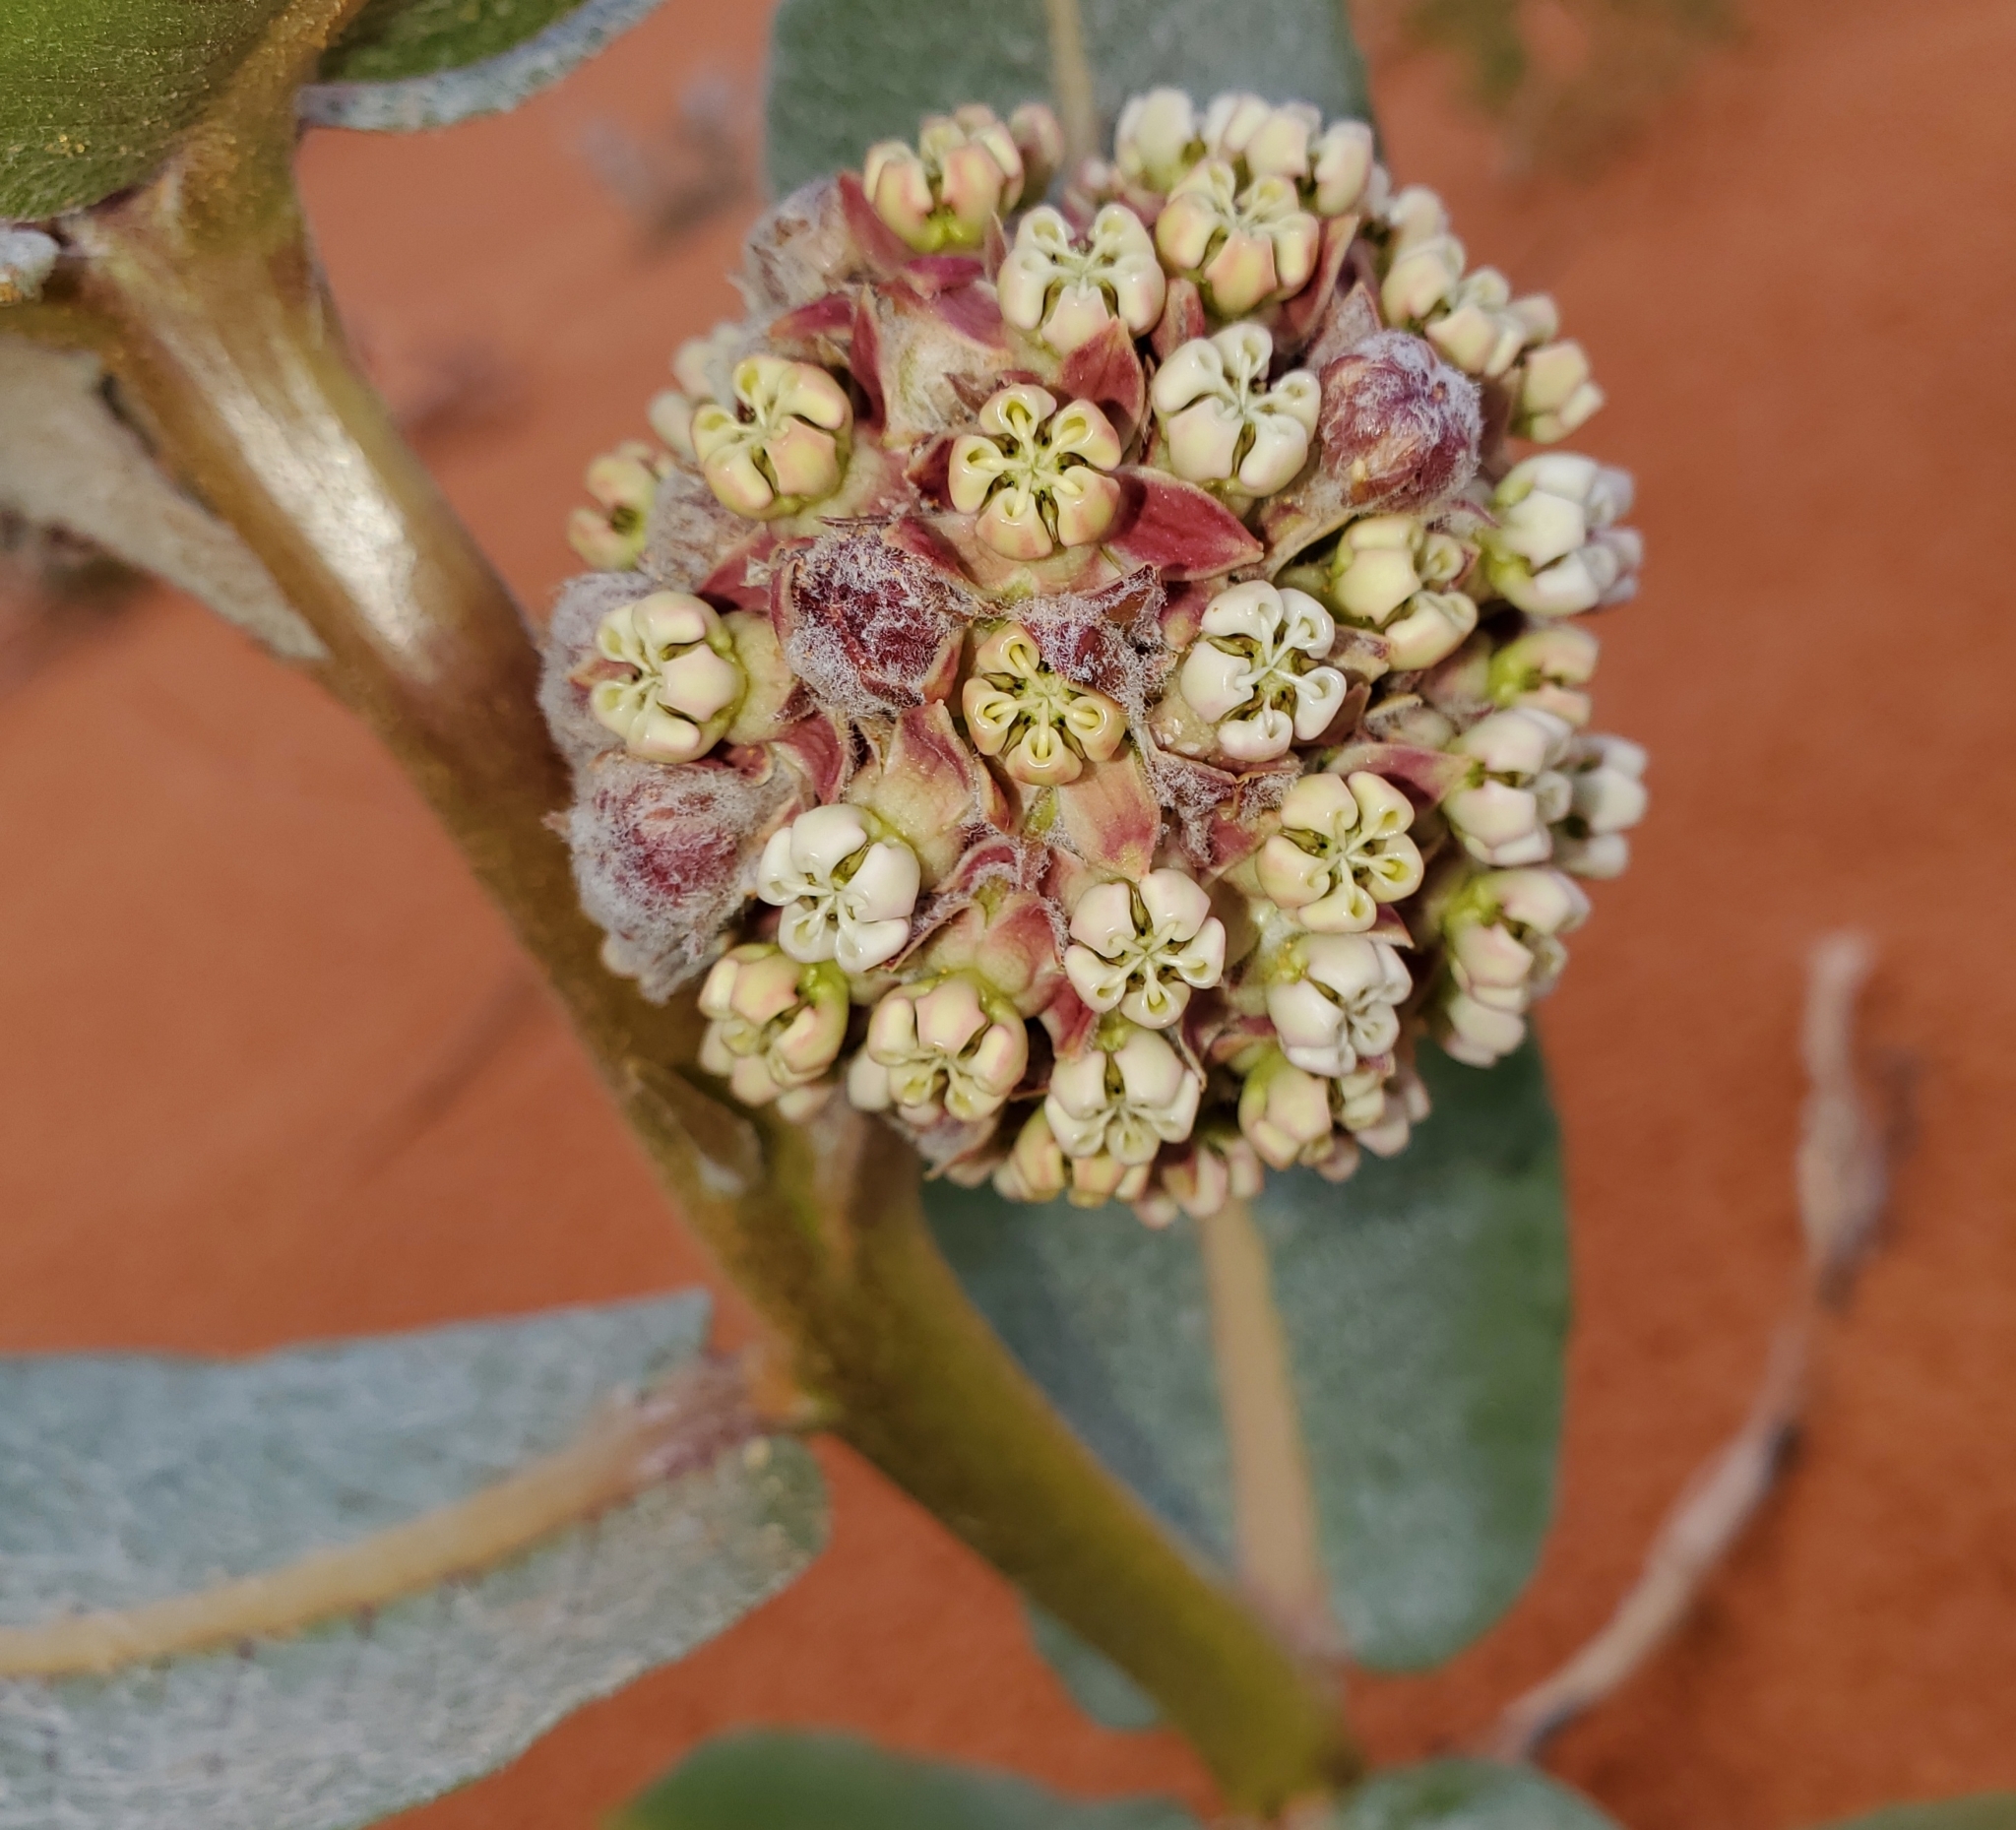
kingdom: Plantae
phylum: Tracheophyta
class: Magnoliopsida
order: Gentianales
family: Apocynaceae
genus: Asclepias
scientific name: Asclepias welshii
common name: Welsch's milkweed
